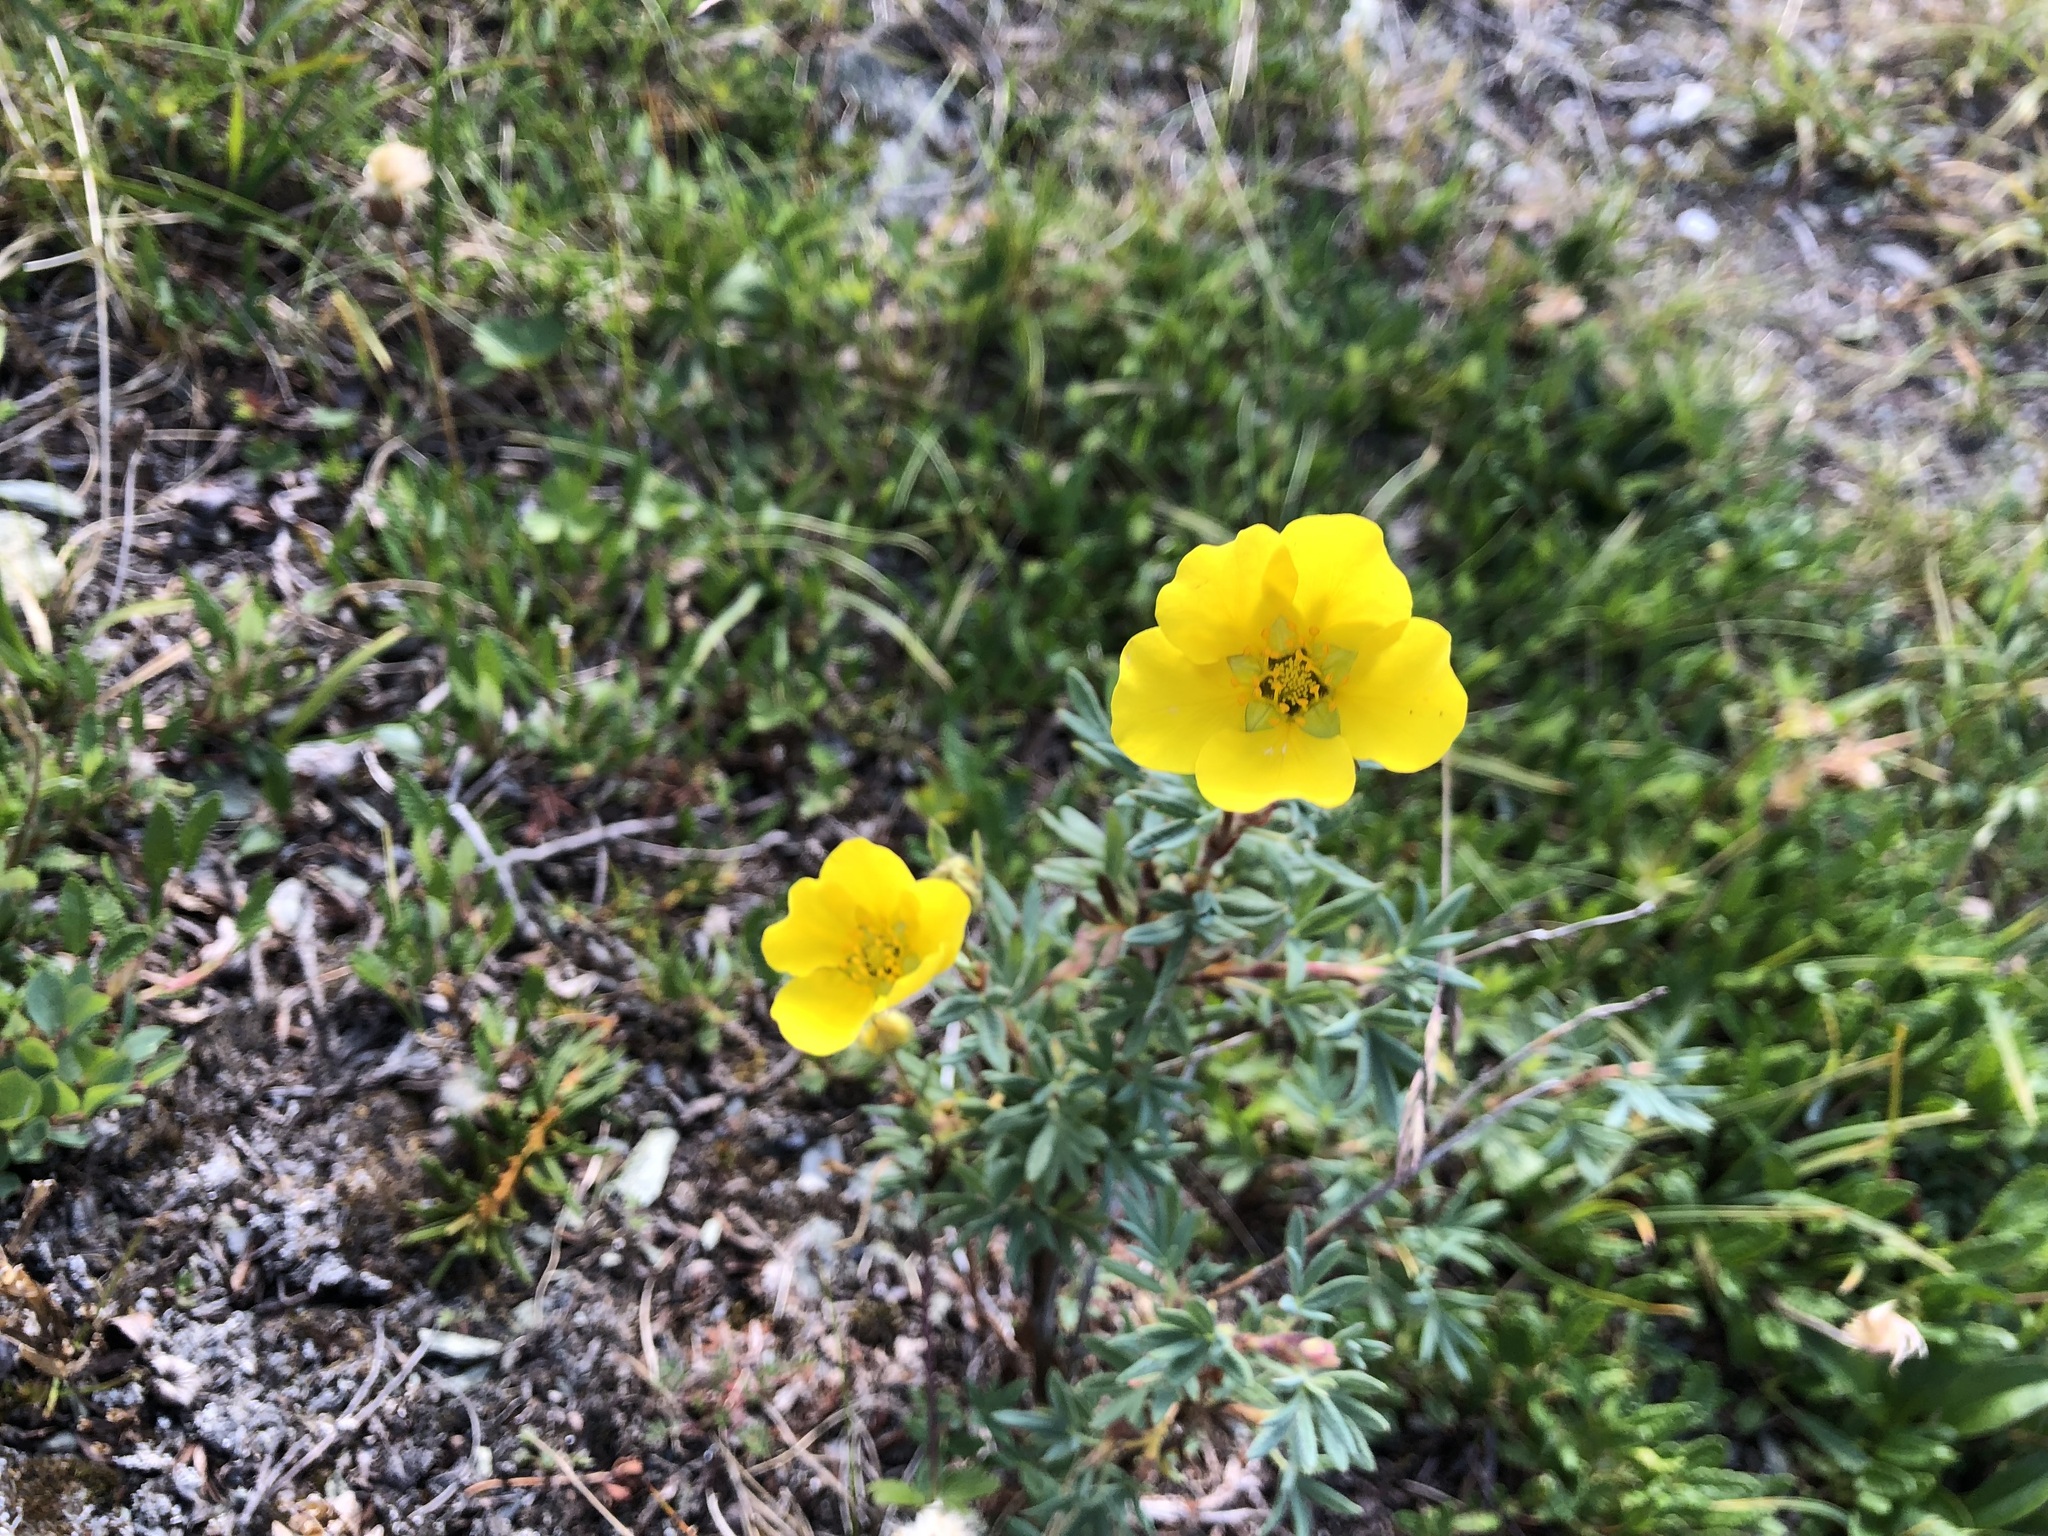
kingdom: Plantae
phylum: Tracheophyta
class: Magnoliopsida
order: Rosales
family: Rosaceae
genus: Dasiphora
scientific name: Dasiphora fruticosa
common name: Shrubby cinquefoil
